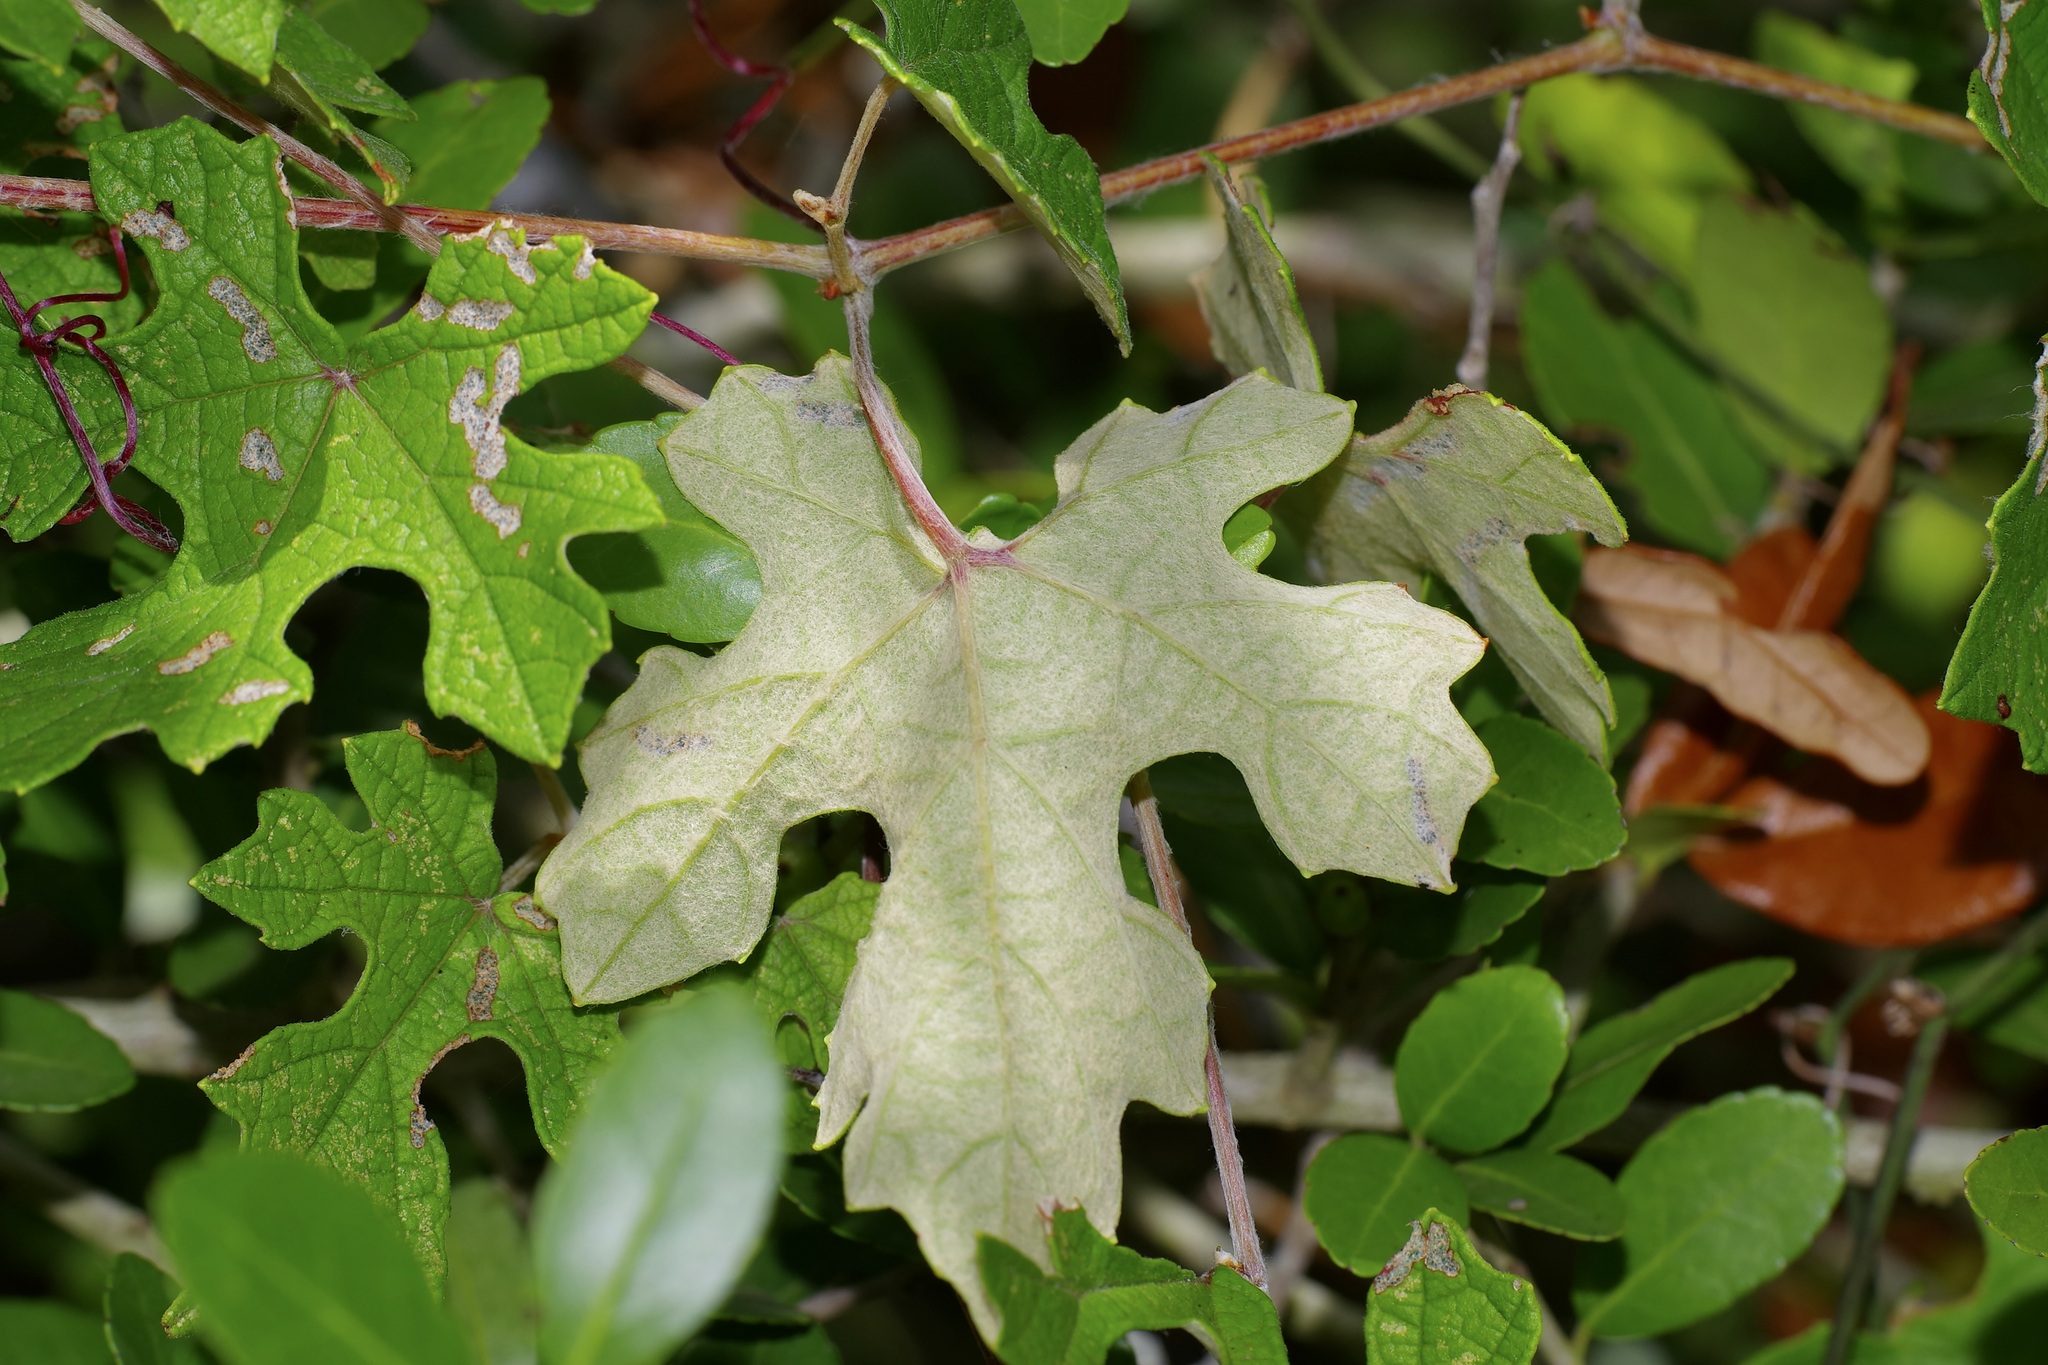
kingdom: Plantae
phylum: Tracheophyta
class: Magnoliopsida
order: Vitales
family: Vitaceae
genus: Vitis
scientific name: Vitis mustangensis
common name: Mustang grape
